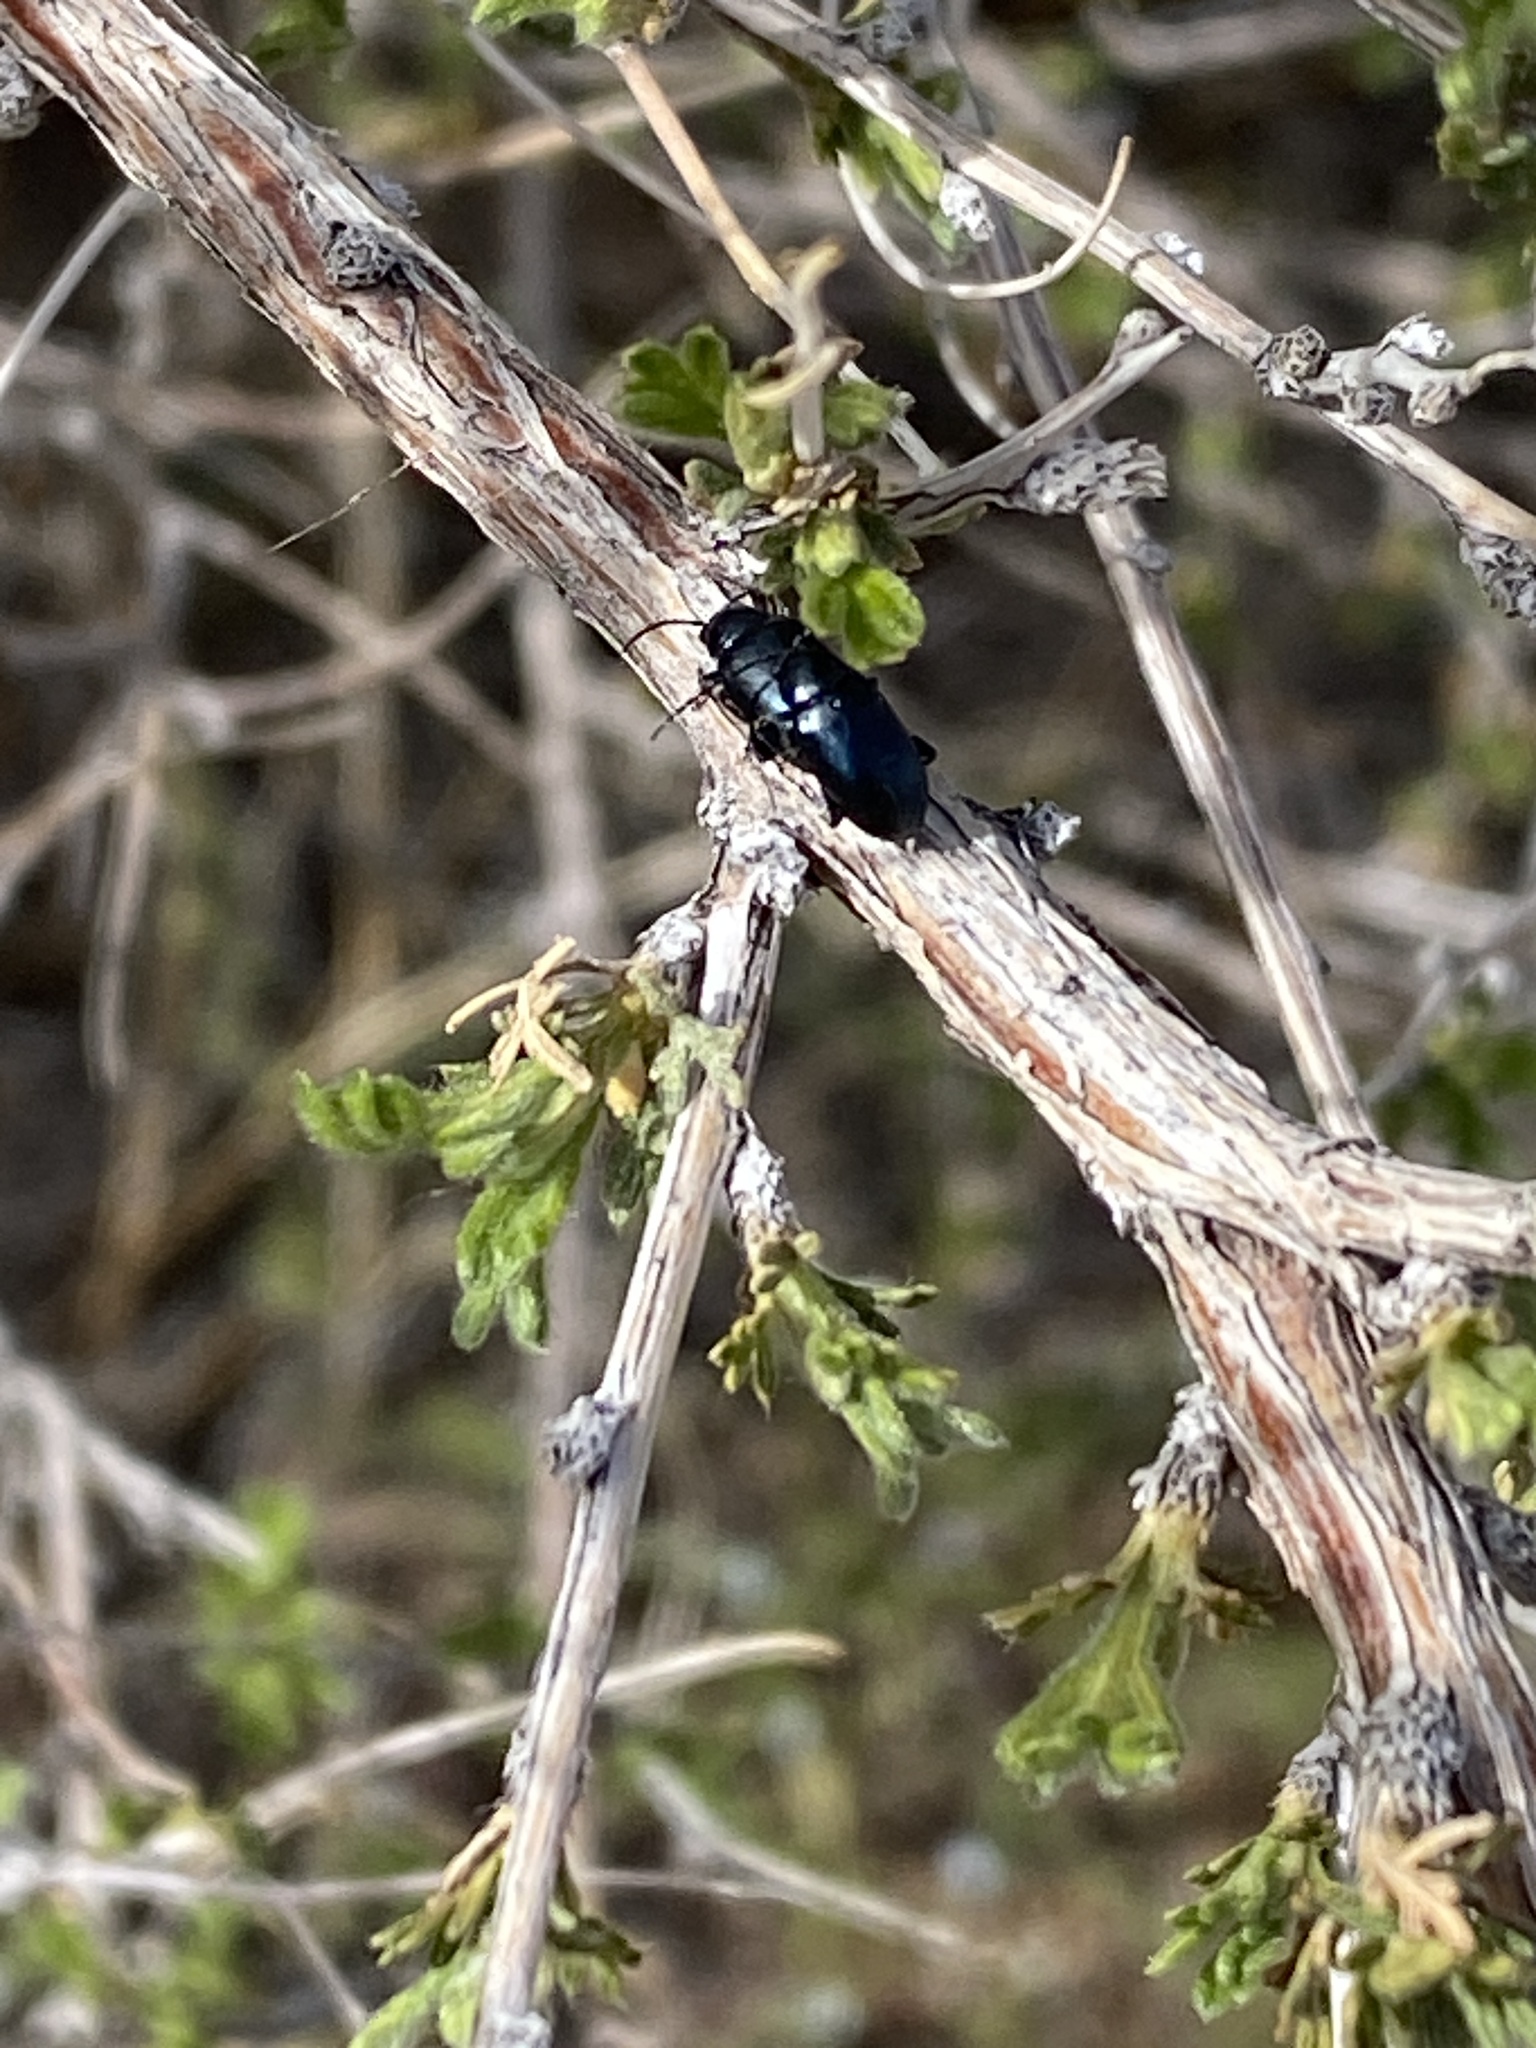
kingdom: Animalia
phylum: Arthropoda
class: Insecta
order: Coleoptera
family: Chrysomelidae
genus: Altica
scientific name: Altica obliterata
